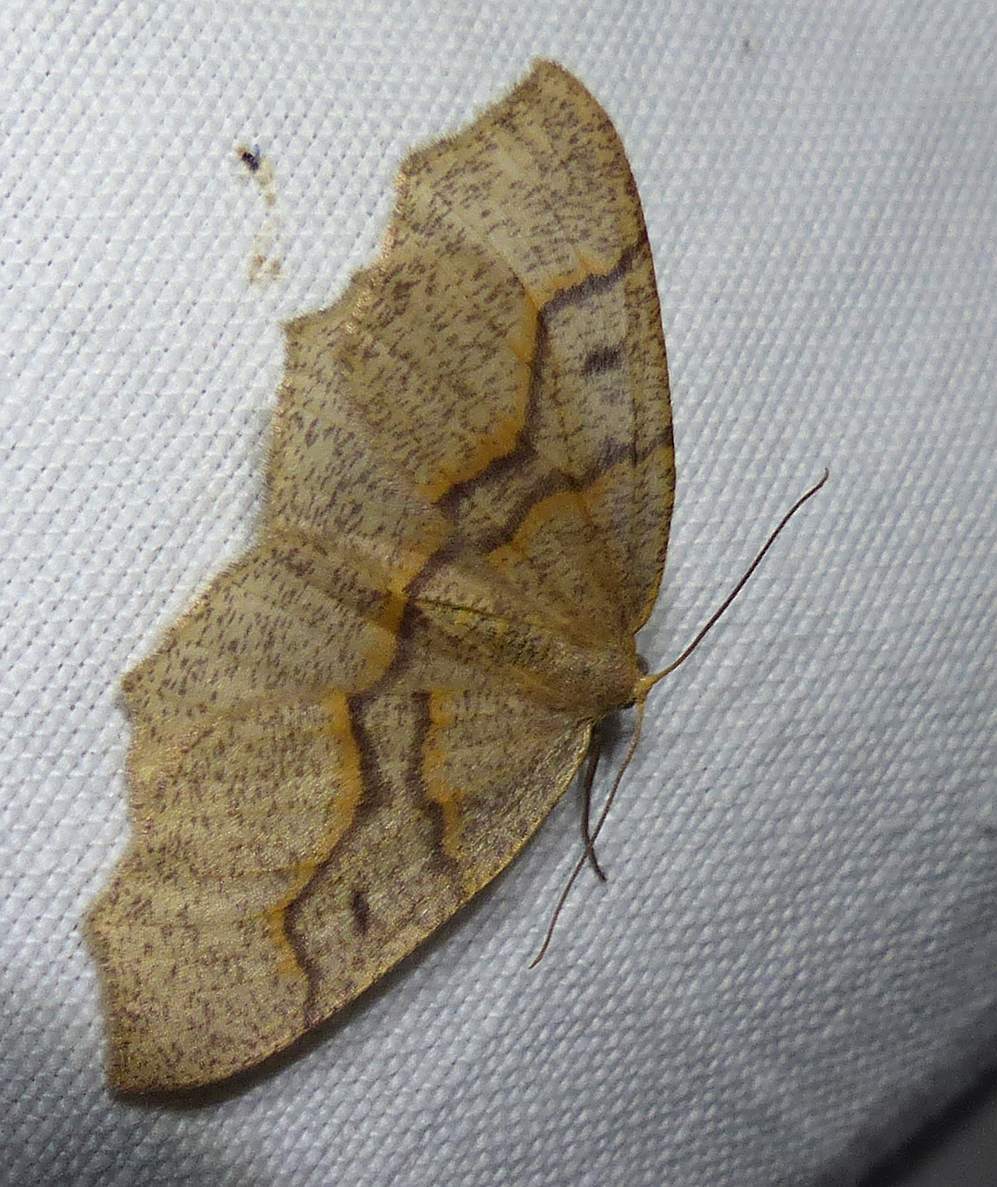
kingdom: Animalia
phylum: Arthropoda
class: Insecta
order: Lepidoptera
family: Geometridae
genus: Lambdina
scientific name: Lambdina fiscellaria
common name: Hemlock looper
